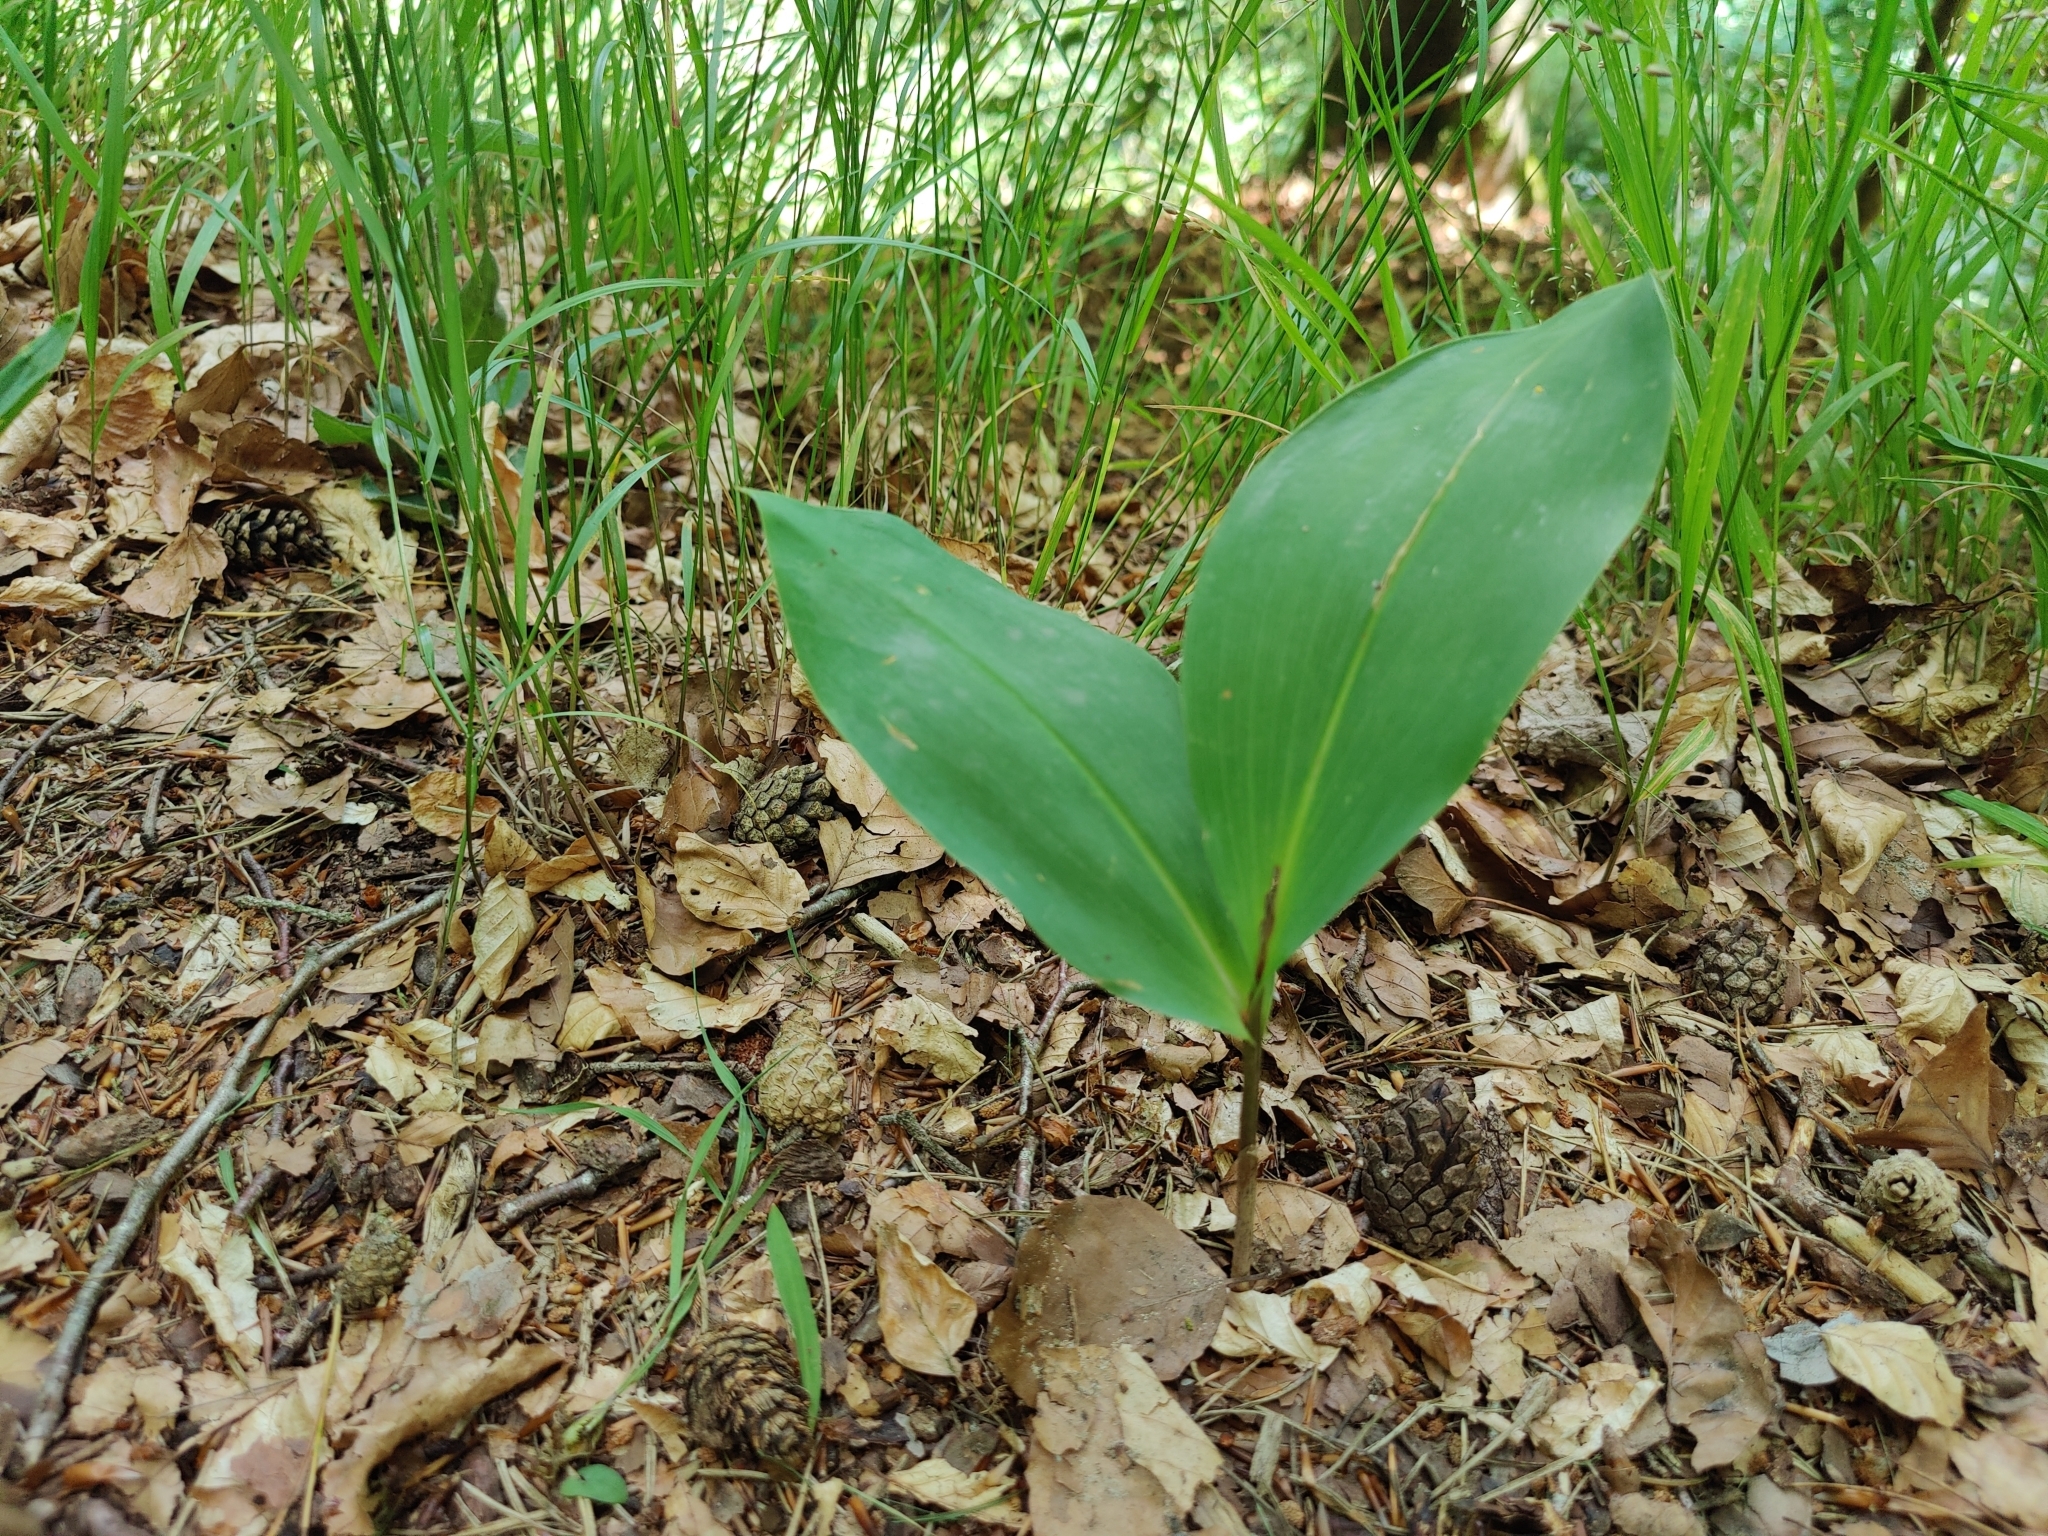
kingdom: Plantae
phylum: Tracheophyta
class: Liliopsida
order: Asparagales
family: Asparagaceae
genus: Convallaria
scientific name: Convallaria majalis
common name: Lily-of-the-valley
